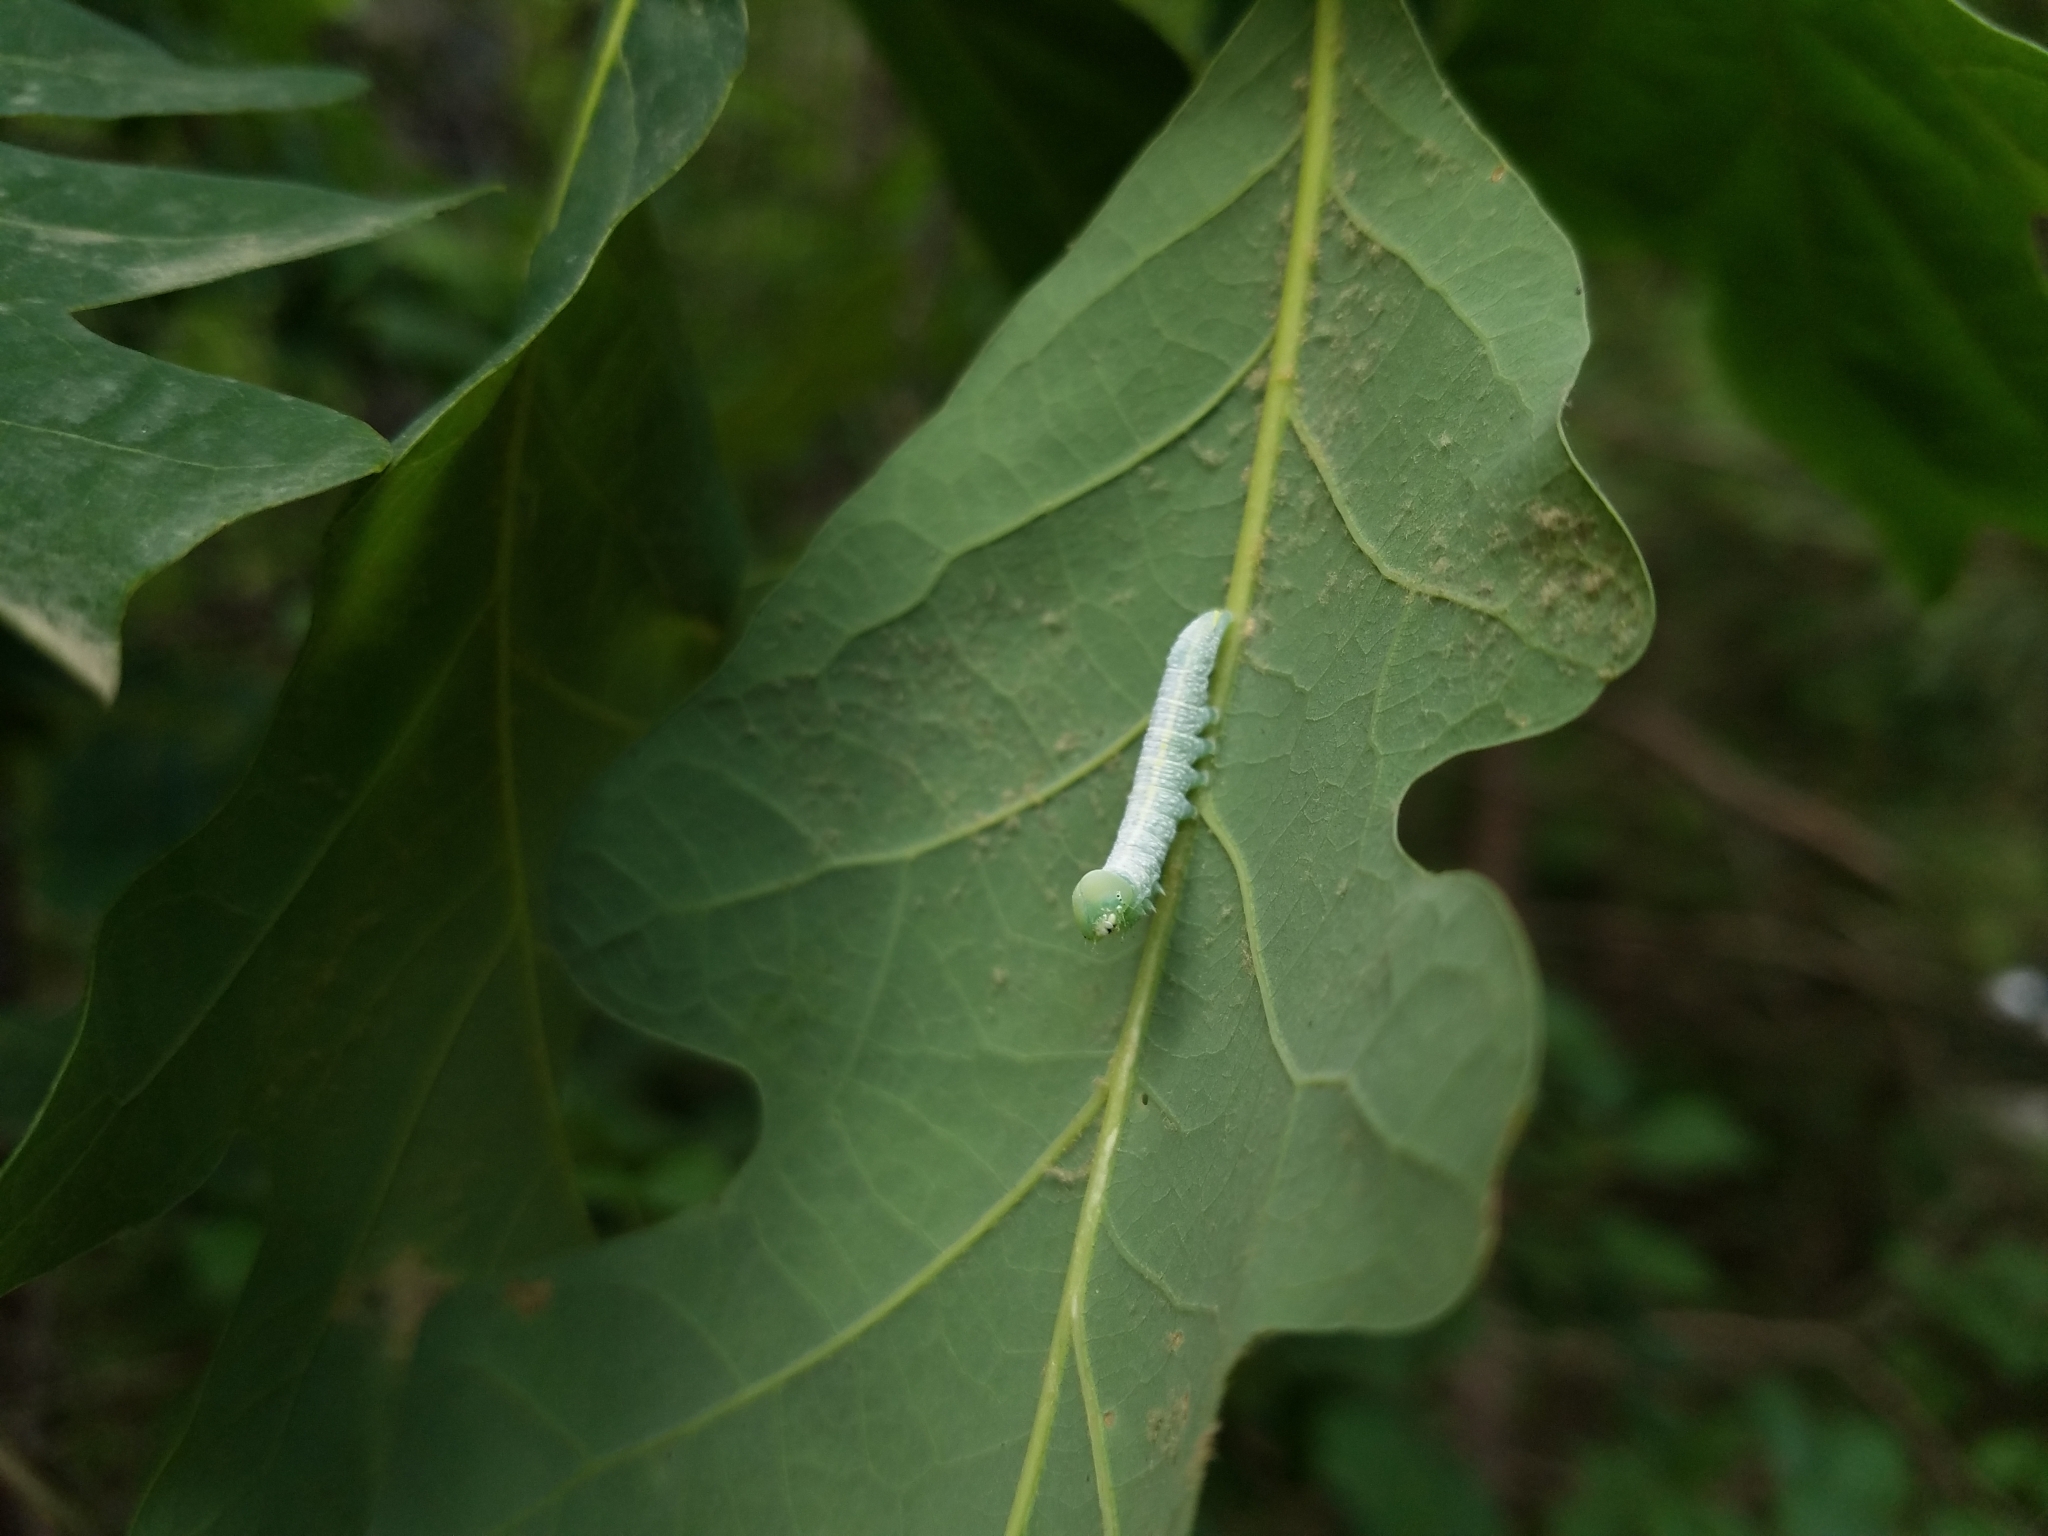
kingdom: Animalia
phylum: Arthropoda
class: Insecta
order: Lepidoptera
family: Notodontidae
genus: Nadata
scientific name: Nadata gibbosa
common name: White-dotted prominent
